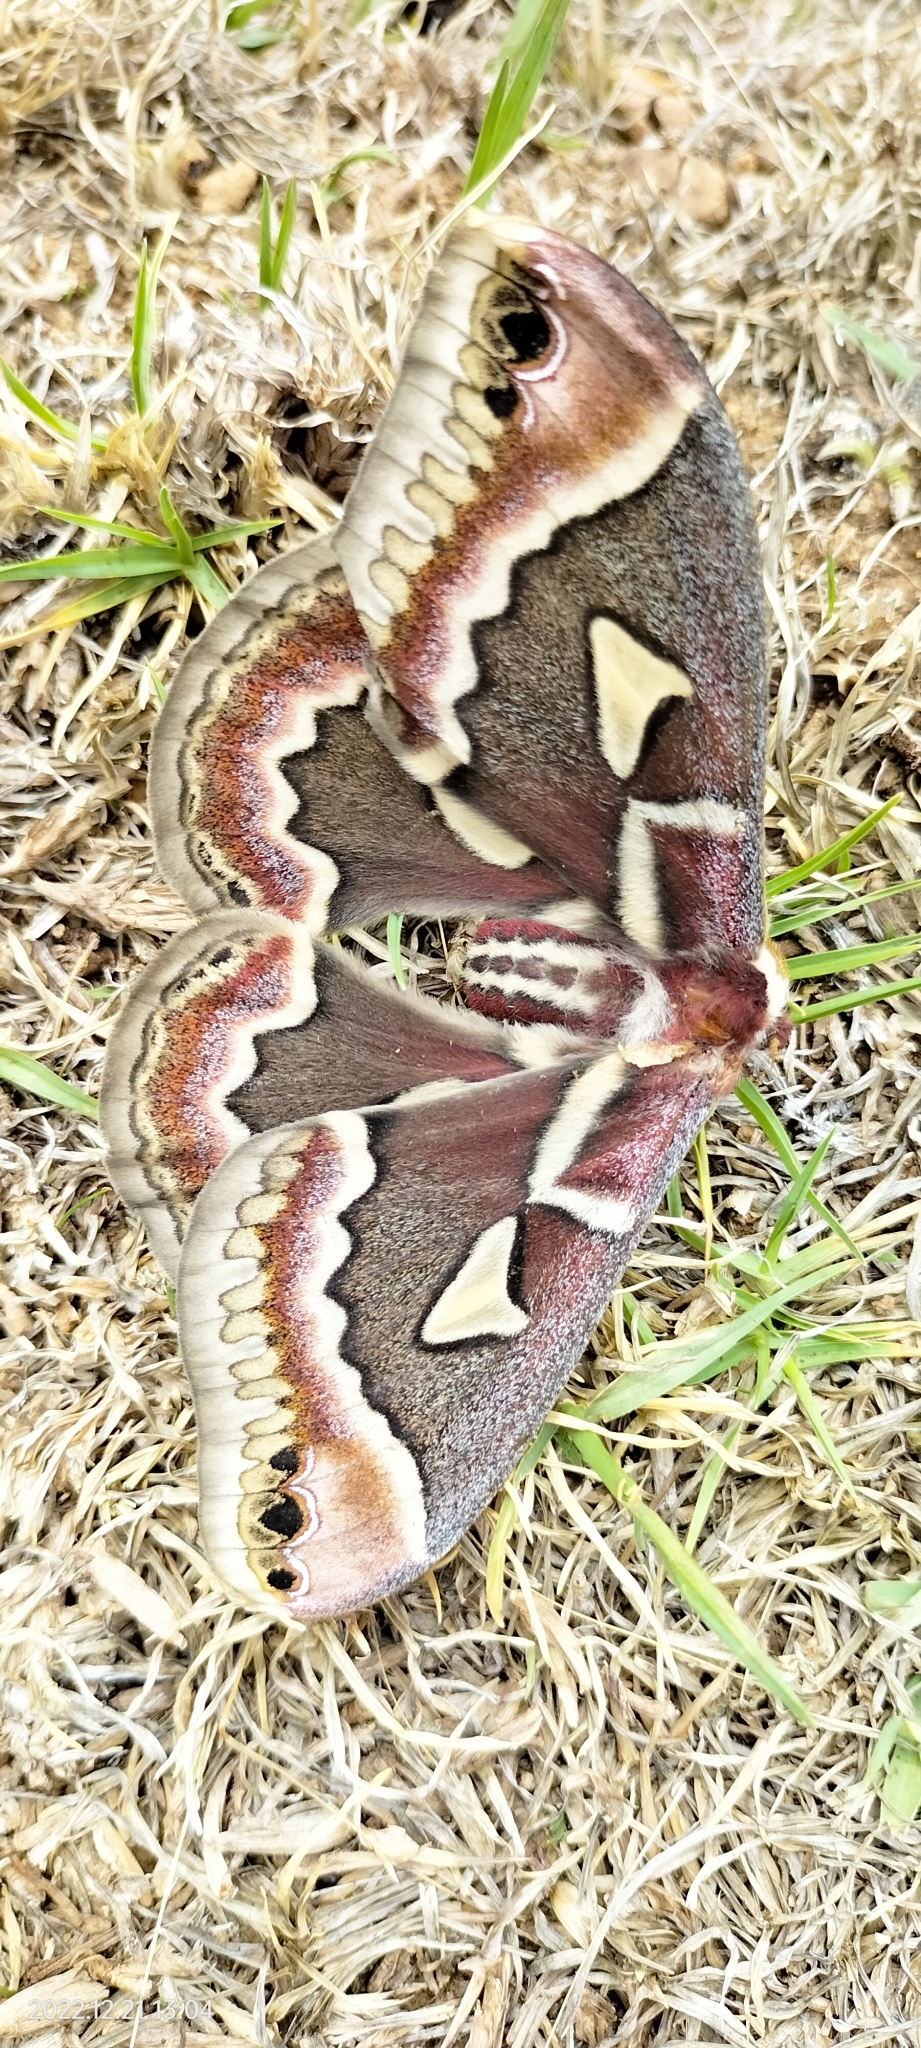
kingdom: Animalia
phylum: Arthropoda
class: Insecta
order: Lepidoptera
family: Saturniidae
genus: Rothschildia
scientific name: Rothschildia renatae
